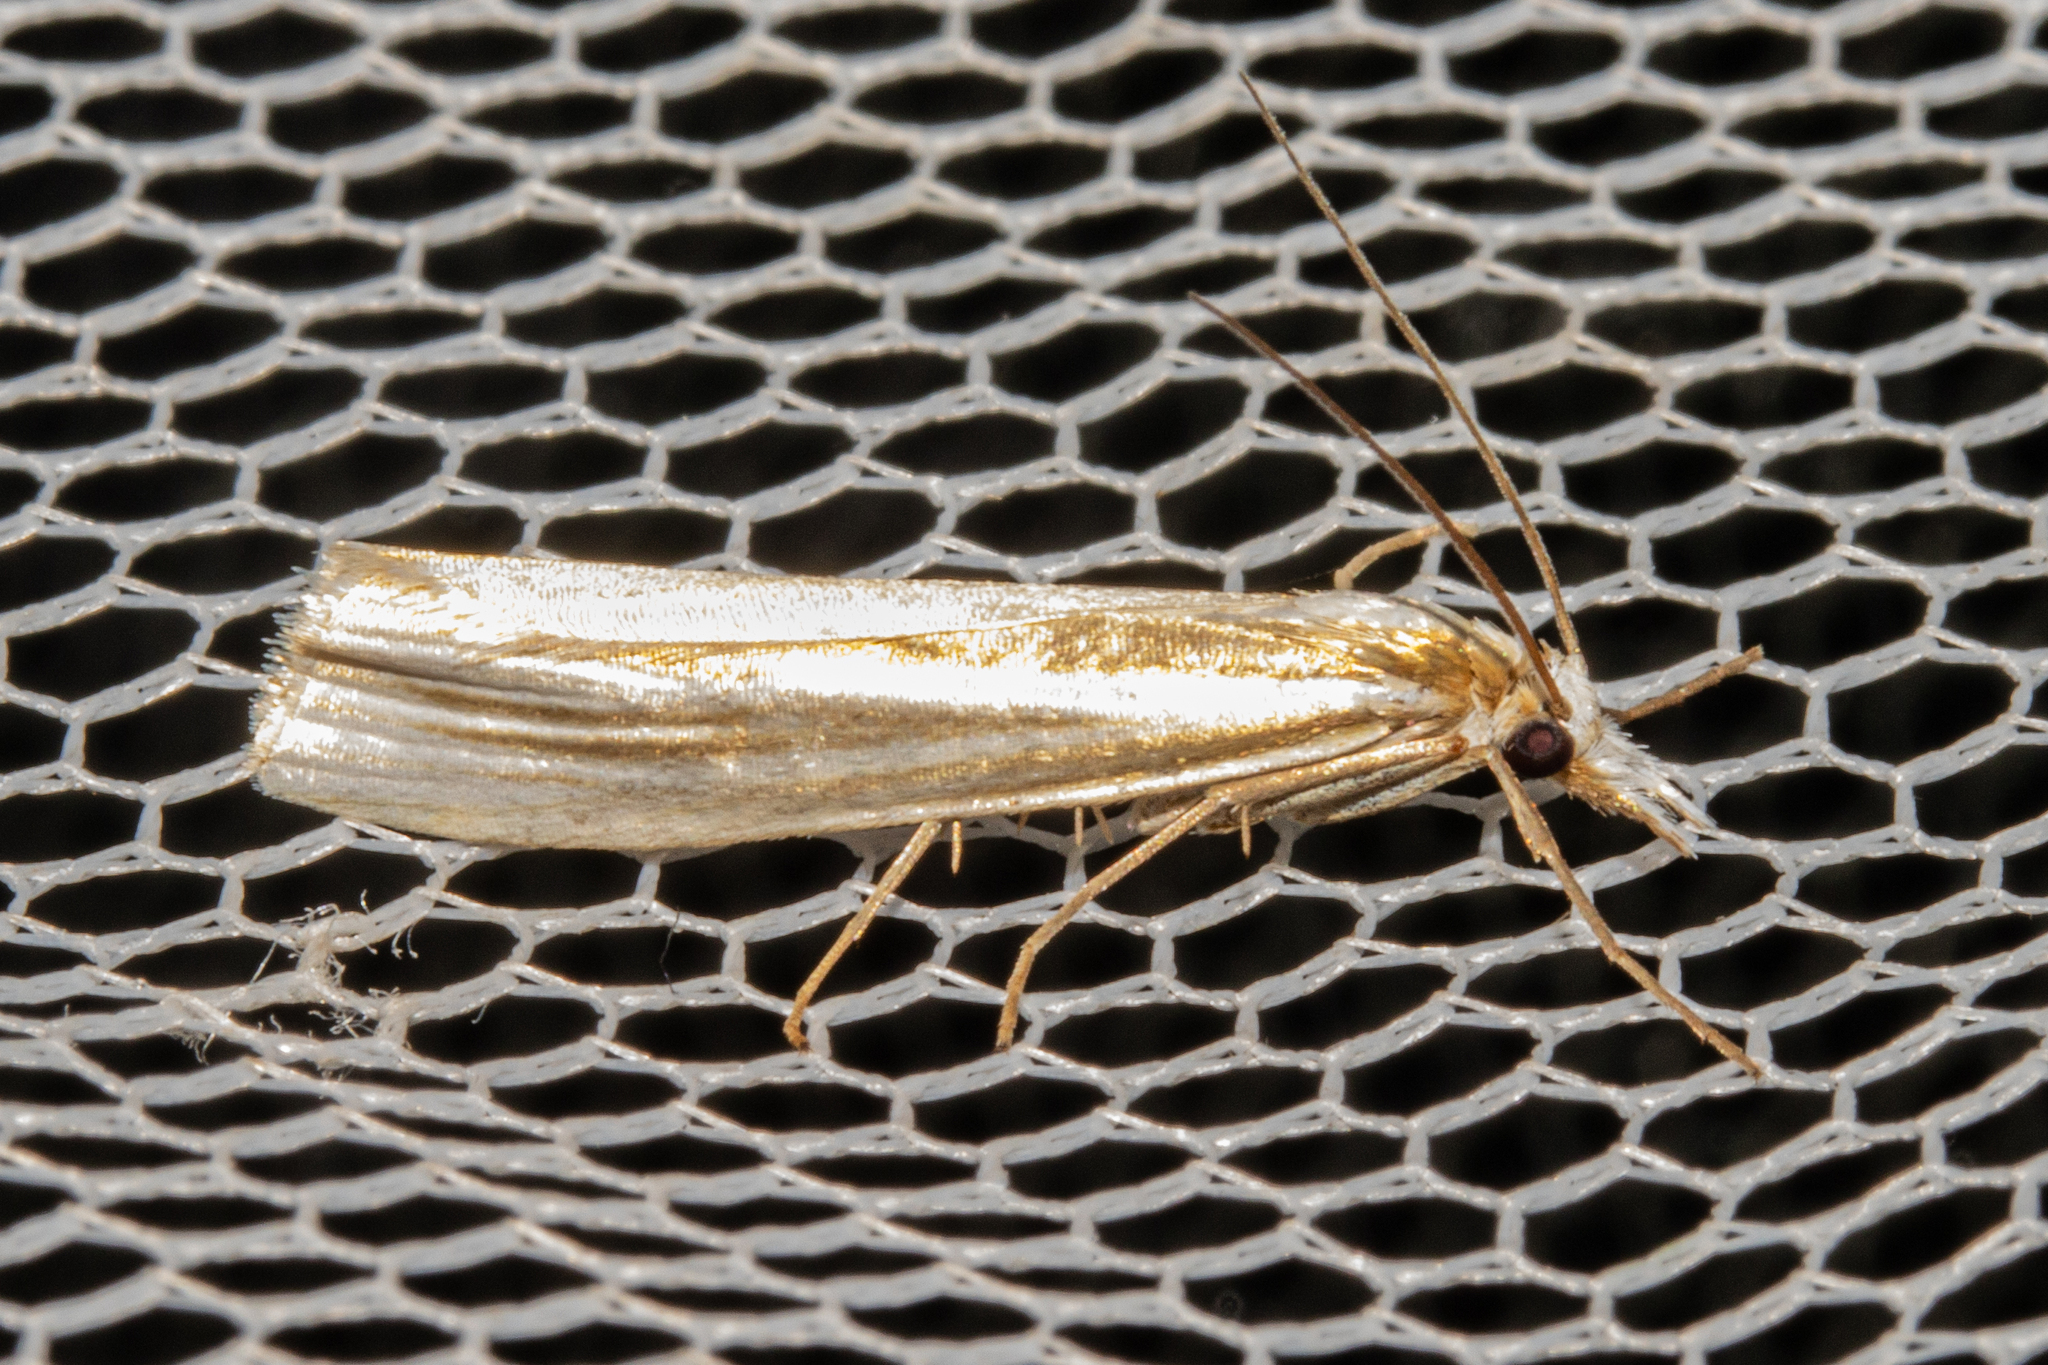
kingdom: Animalia
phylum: Arthropoda
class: Insecta
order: Lepidoptera
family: Crambidae
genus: Orocrambus
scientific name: Orocrambus ramosellus
